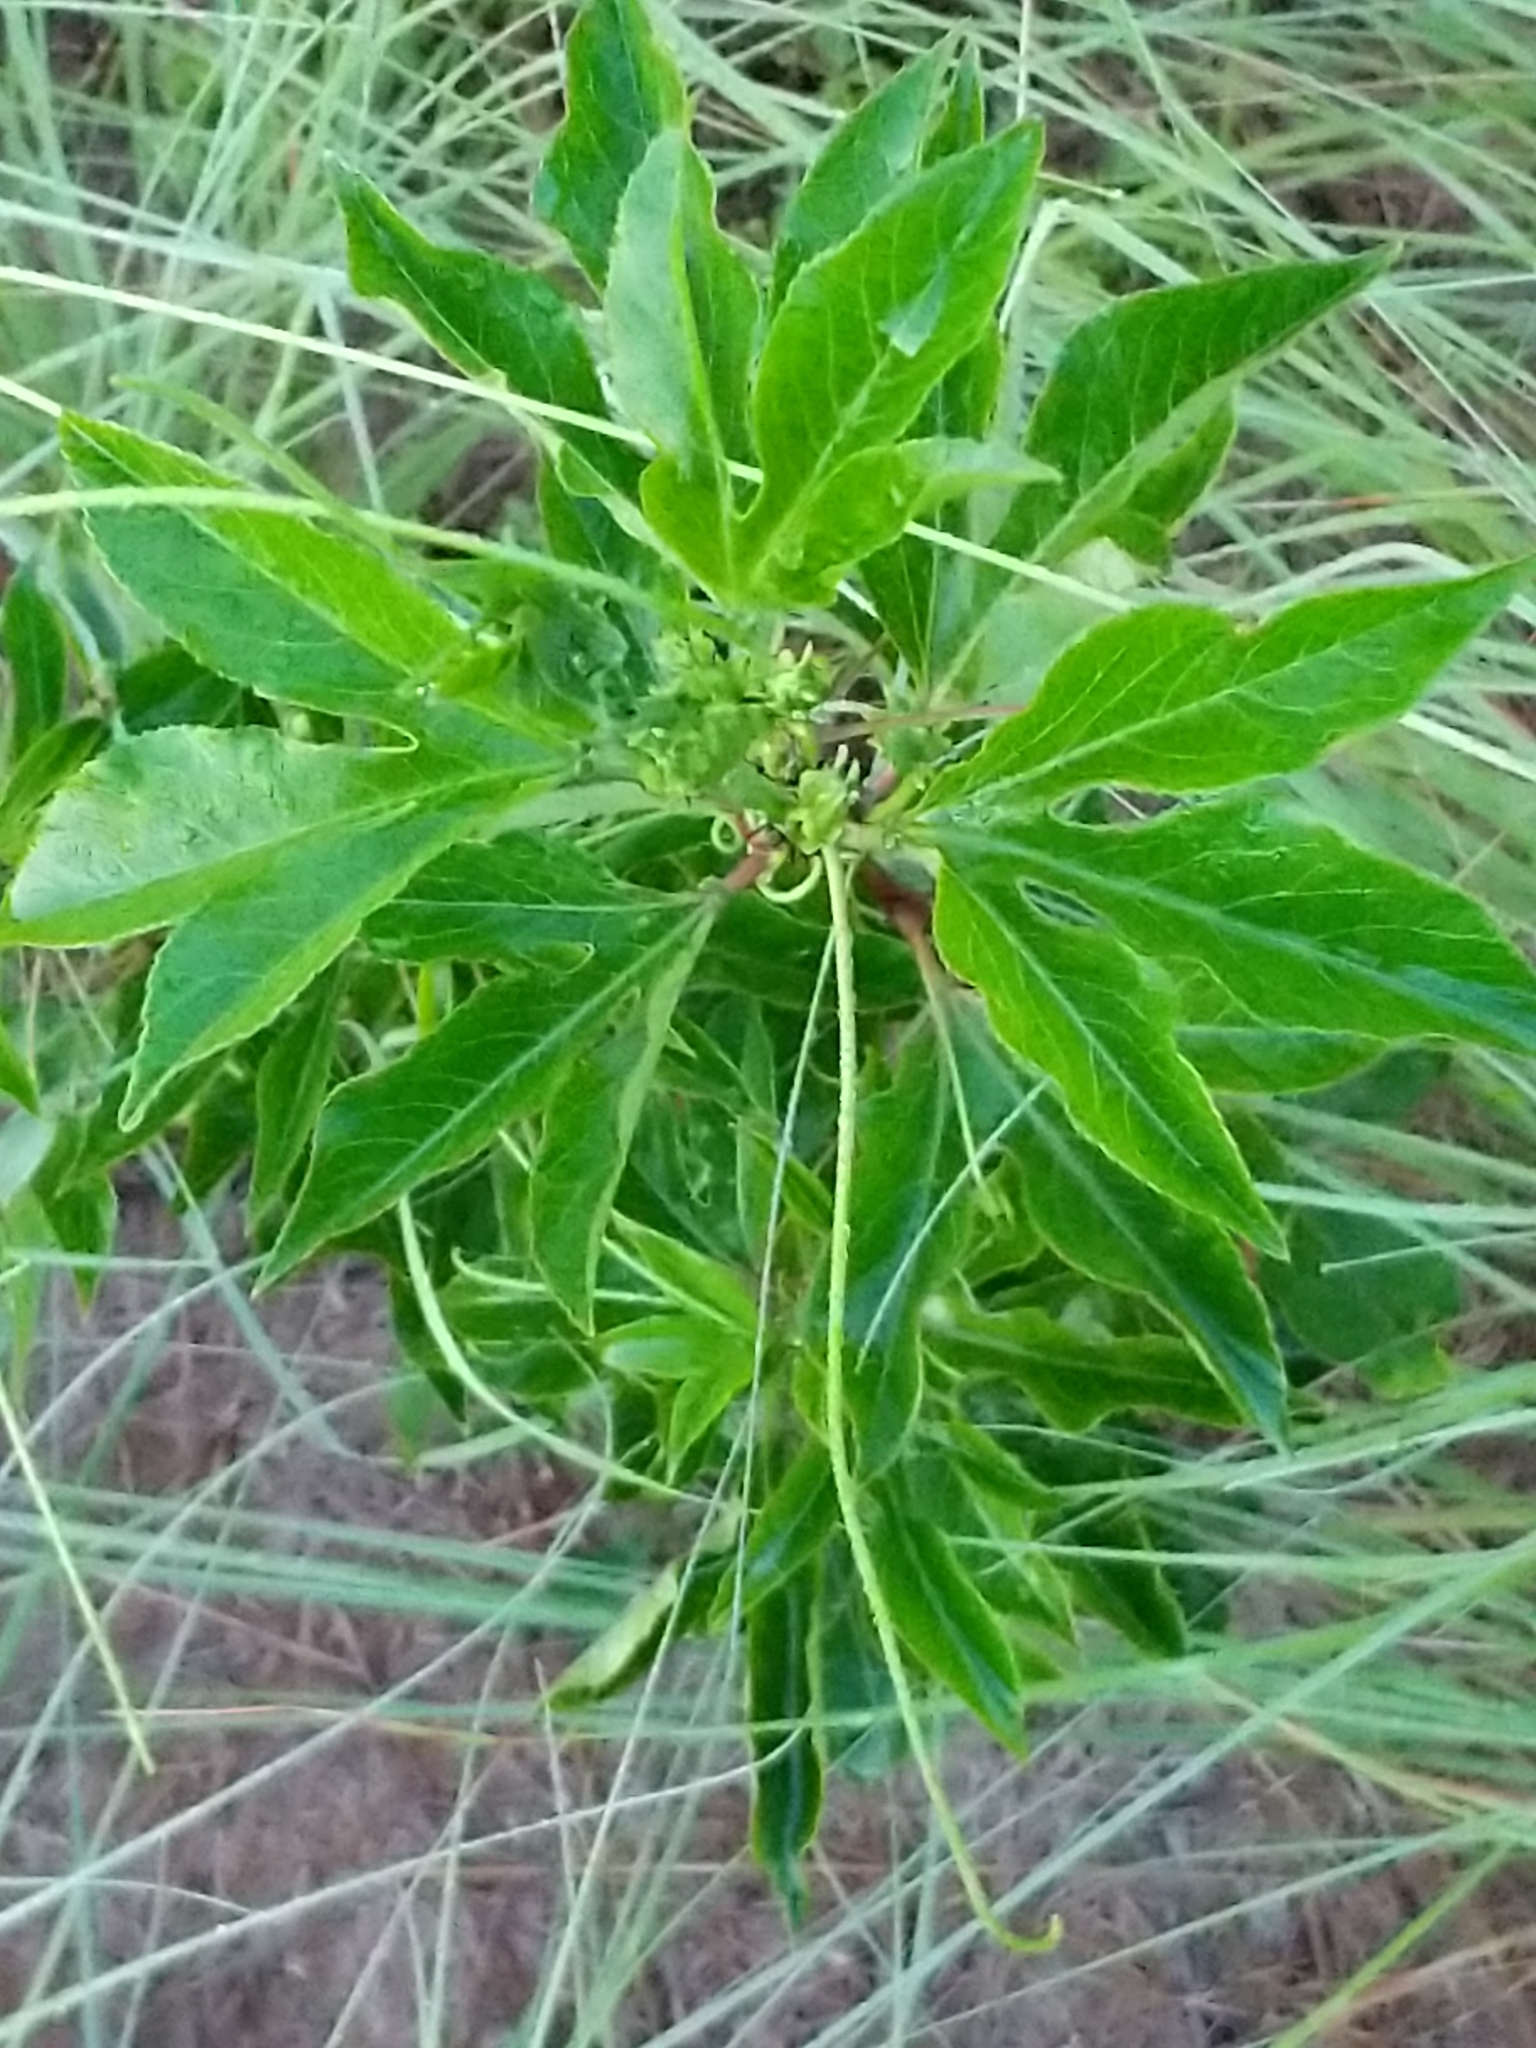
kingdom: Plantae
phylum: Tracheophyta
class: Magnoliopsida
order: Malpighiales
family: Passifloraceae
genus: Passiflora
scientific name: Passiflora incarnata
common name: Apricot-vine
